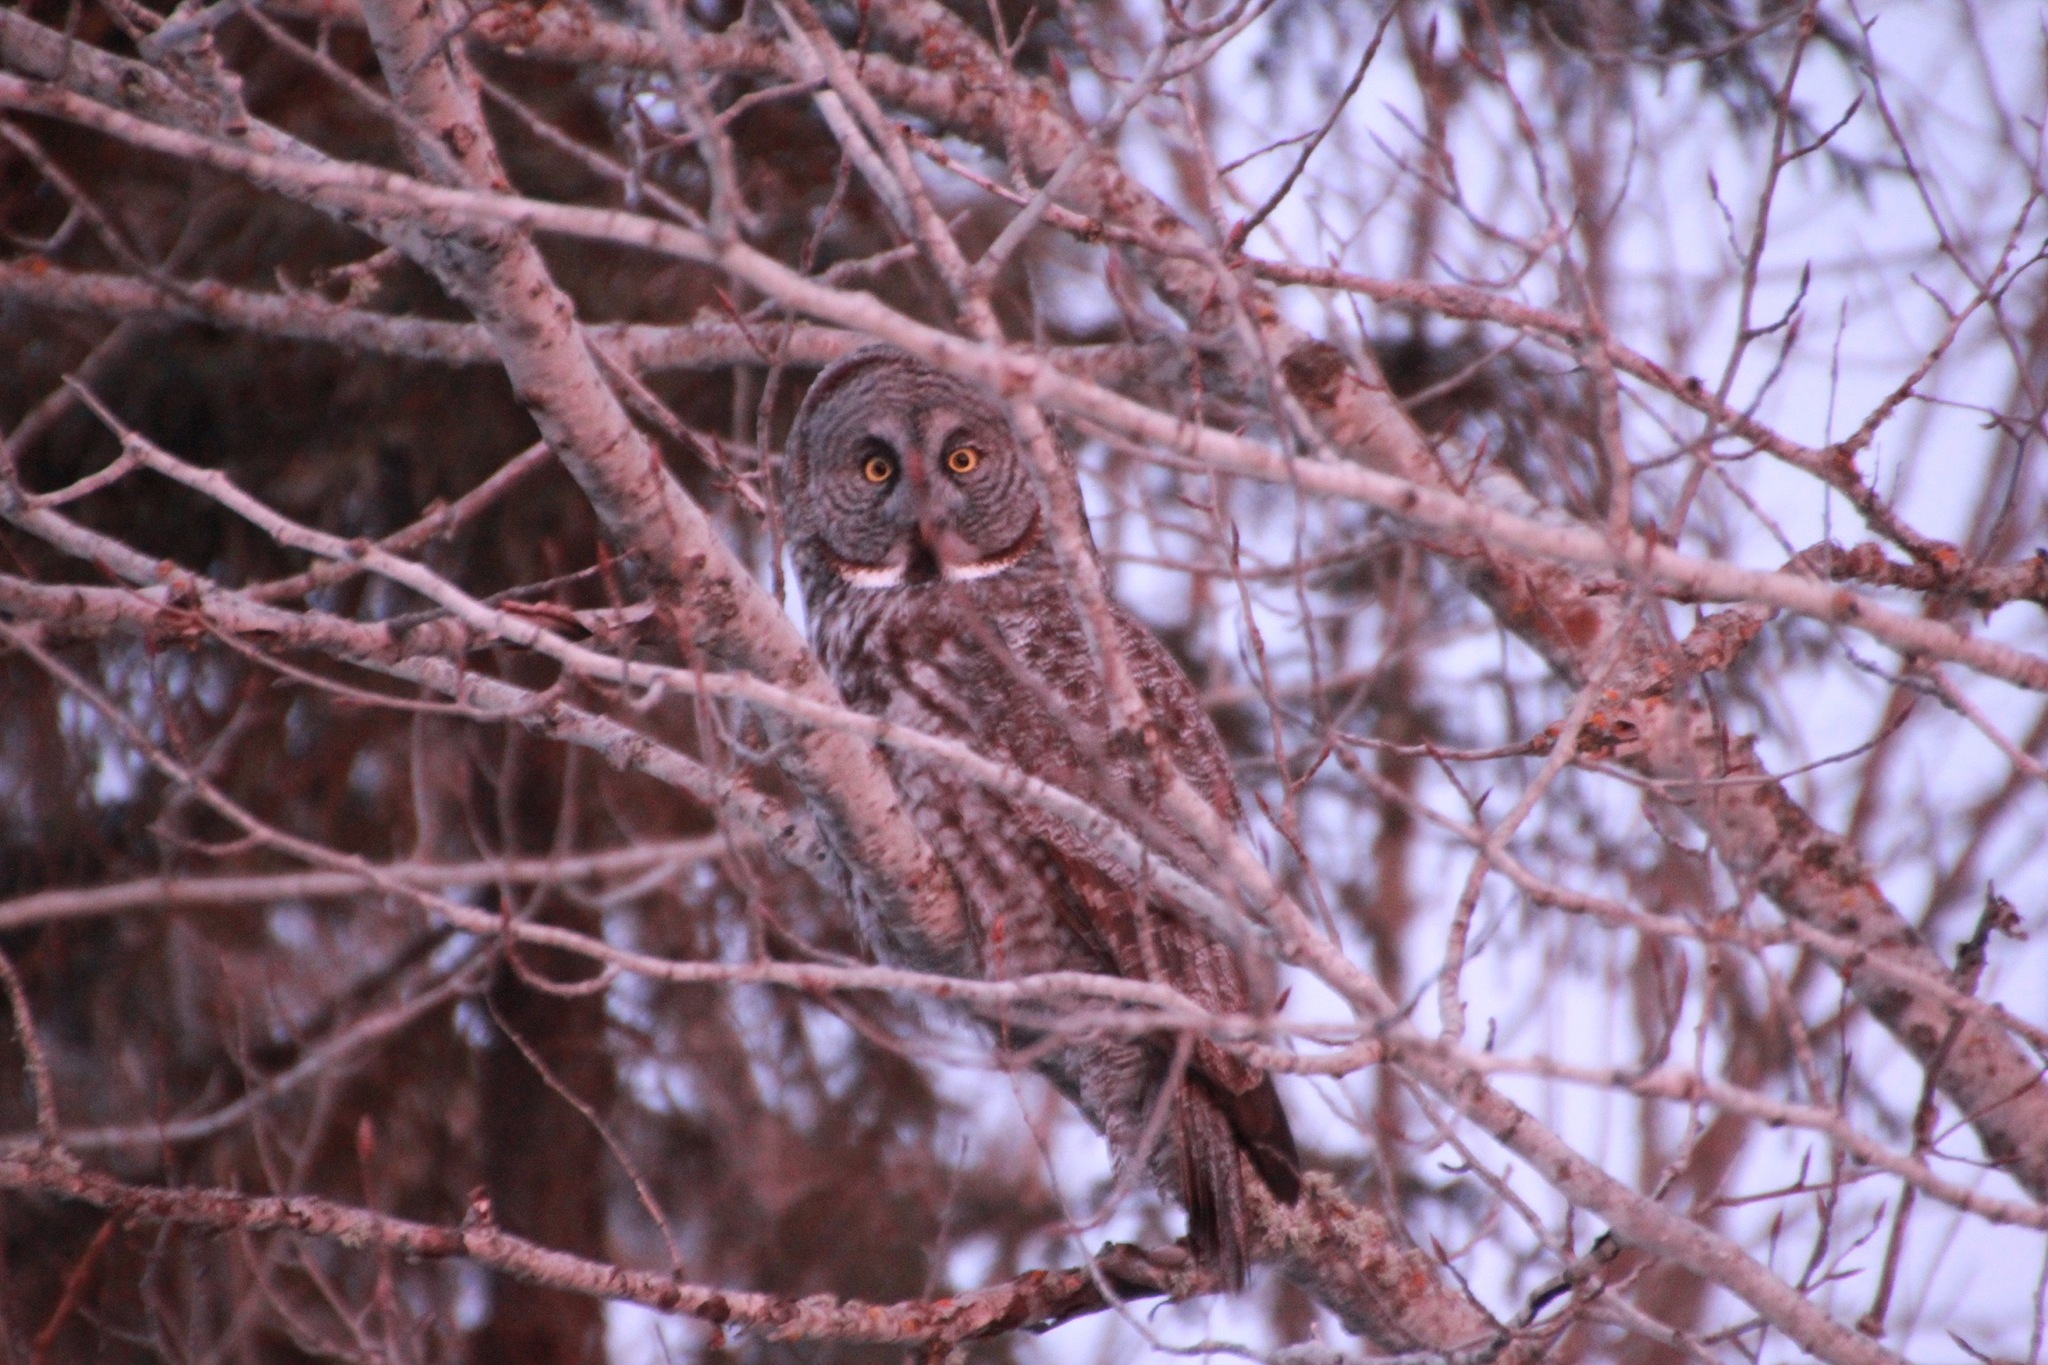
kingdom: Animalia
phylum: Chordata
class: Aves
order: Strigiformes
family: Strigidae
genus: Strix
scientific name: Strix nebulosa
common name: Great grey owl
